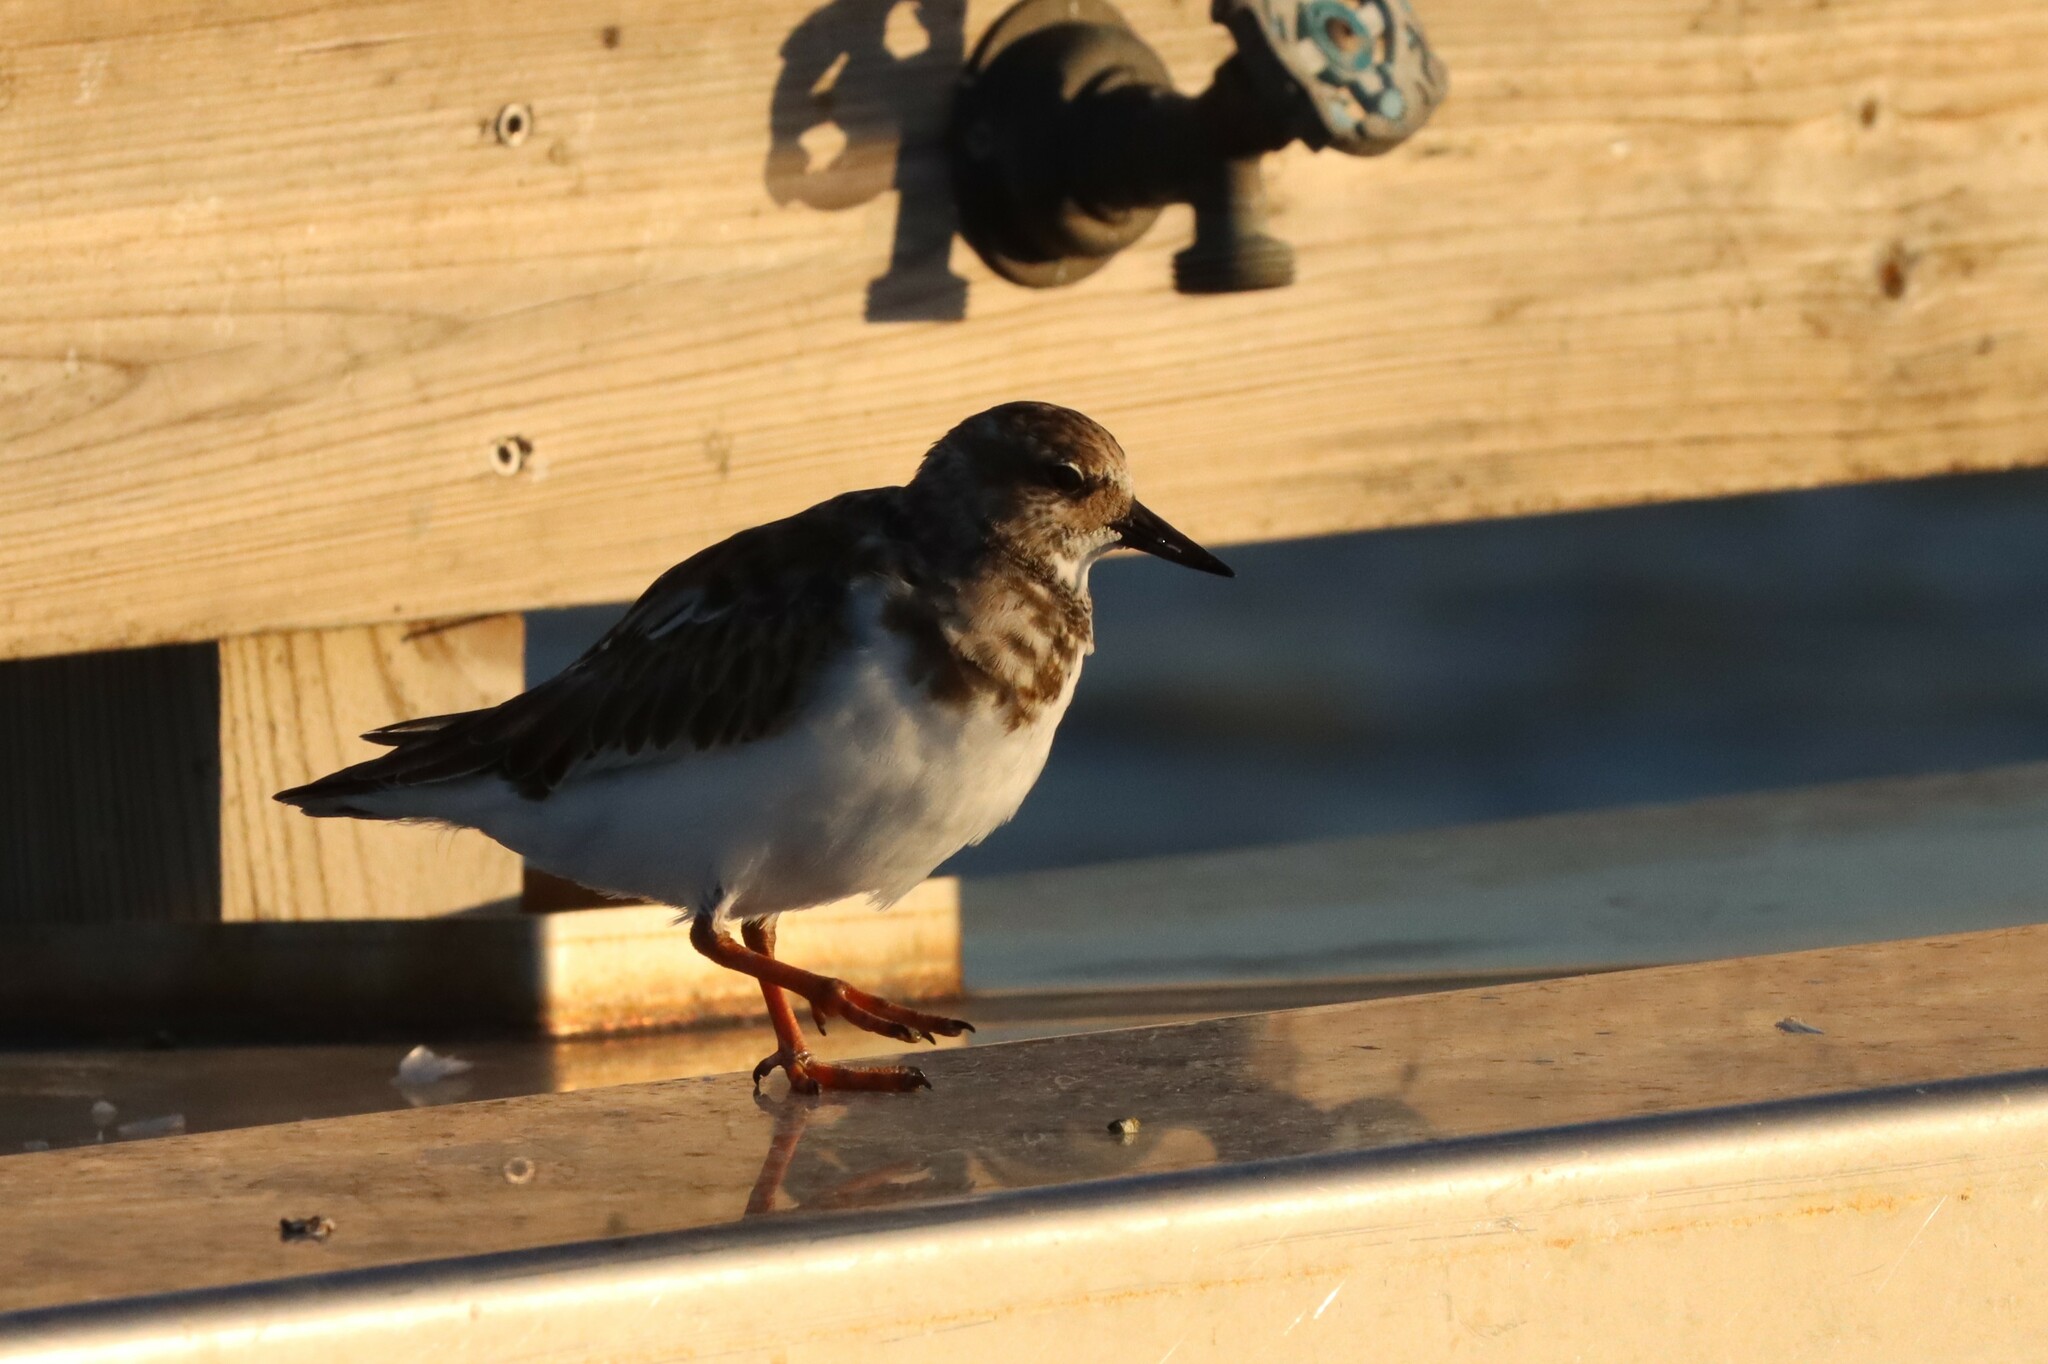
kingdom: Animalia
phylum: Chordata
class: Aves
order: Charadriiformes
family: Scolopacidae
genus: Arenaria
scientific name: Arenaria interpres
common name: Ruddy turnstone
